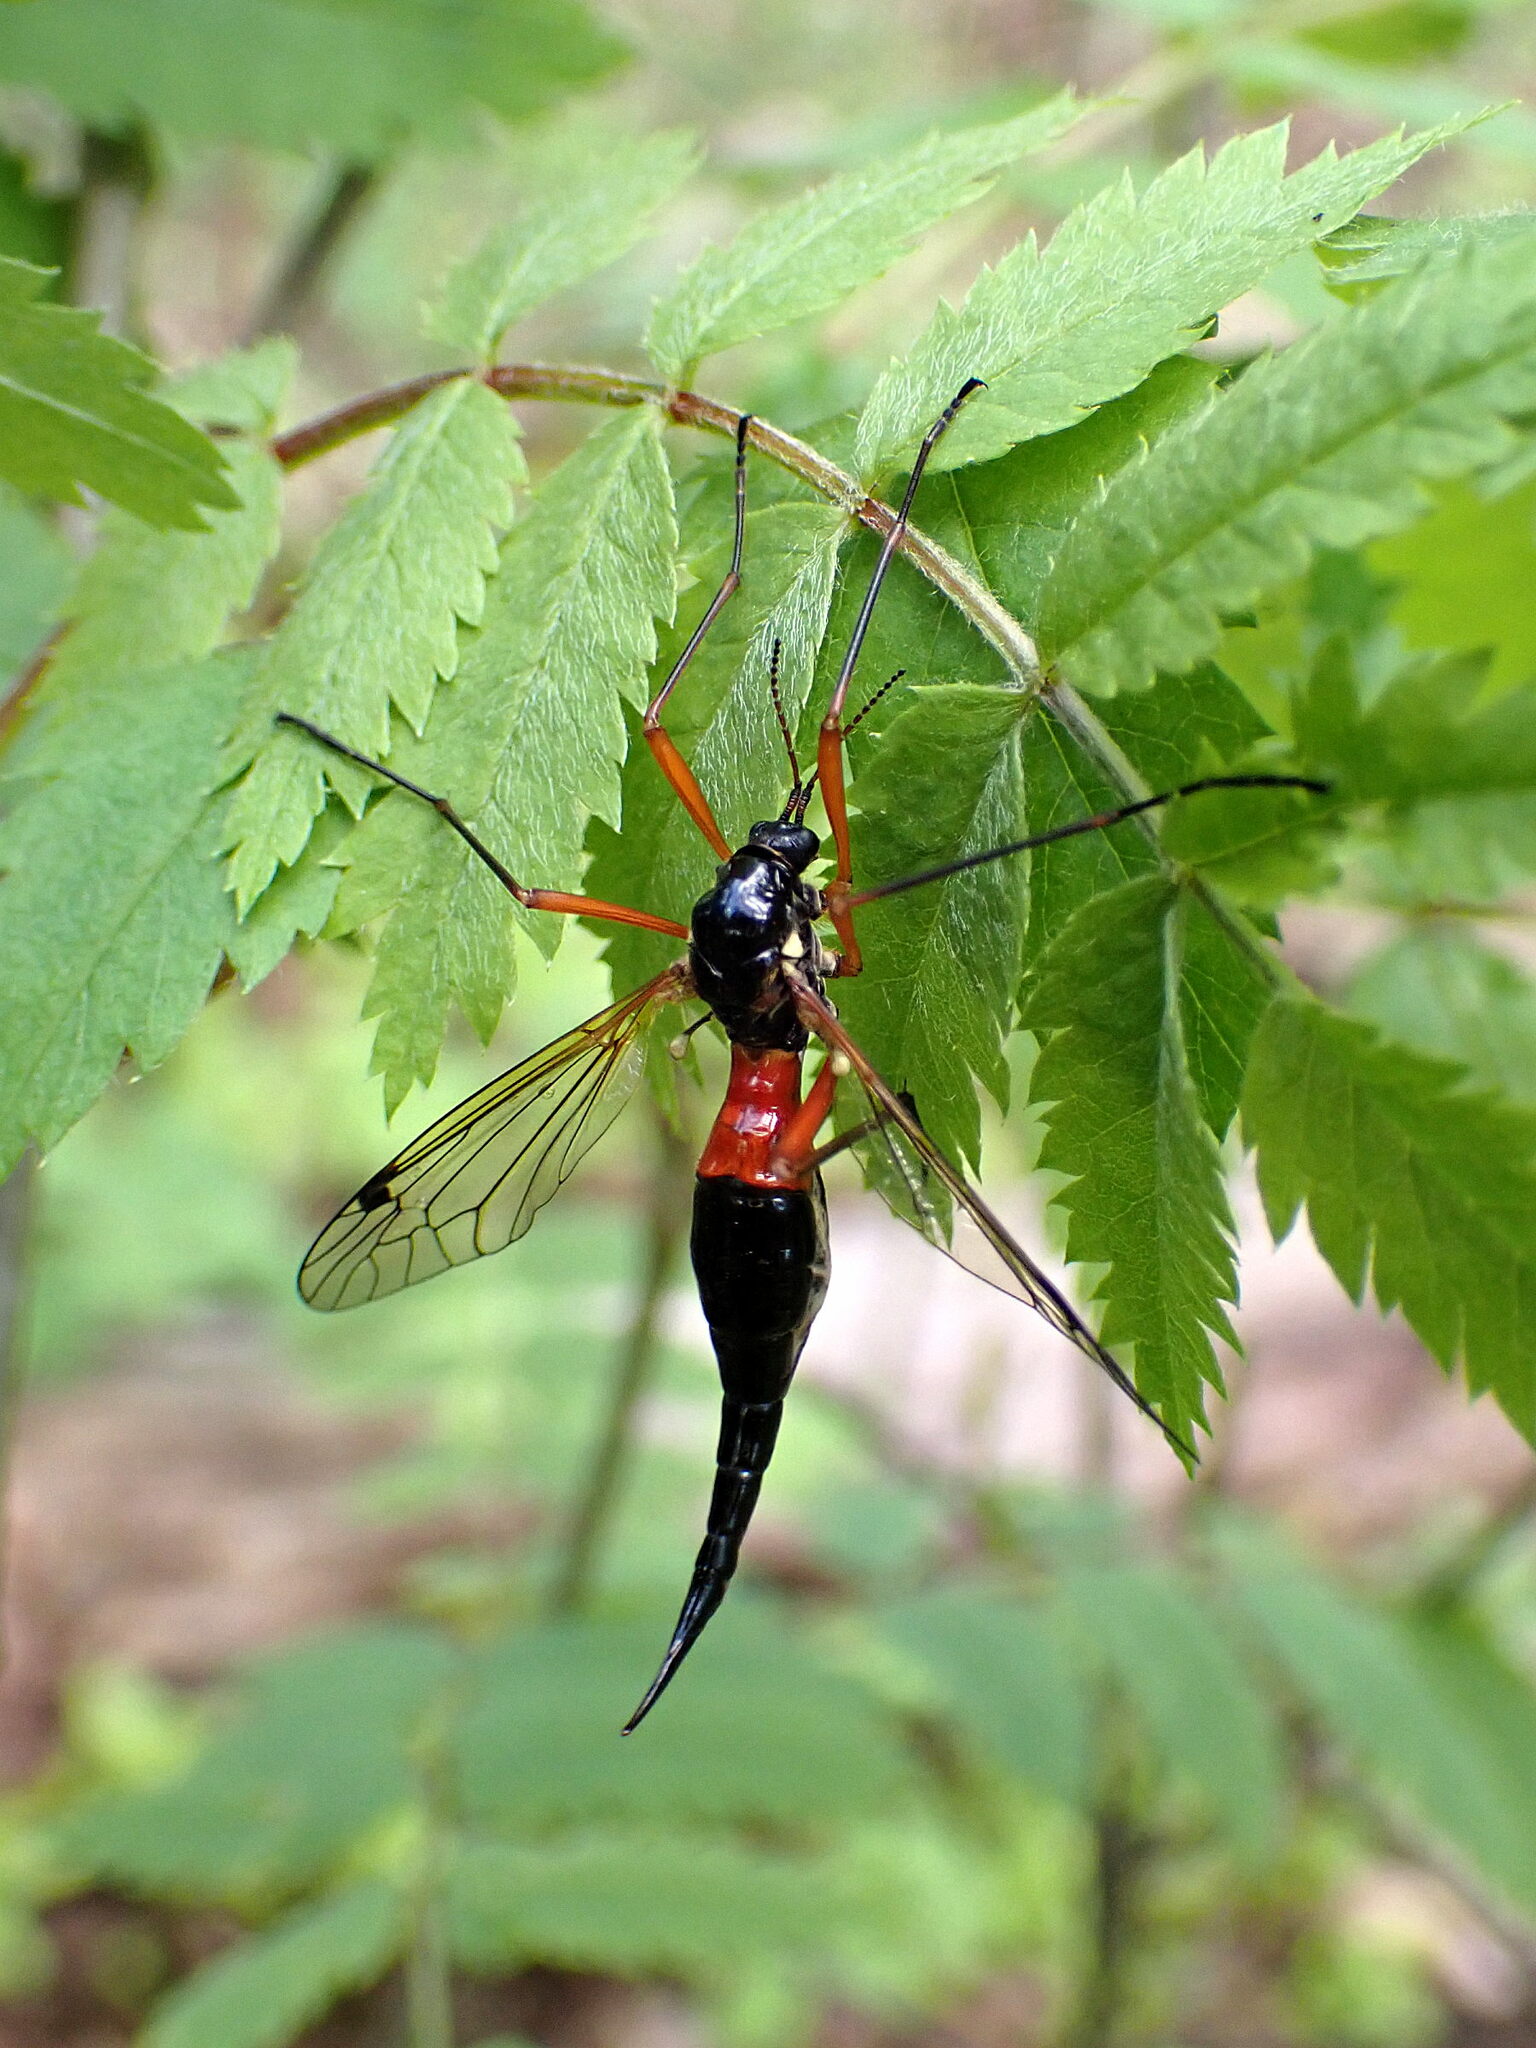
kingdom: Animalia
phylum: Arthropoda
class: Insecta
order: Diptera
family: Tipulidae
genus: Tanyptera
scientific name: Tanyptera atrata
